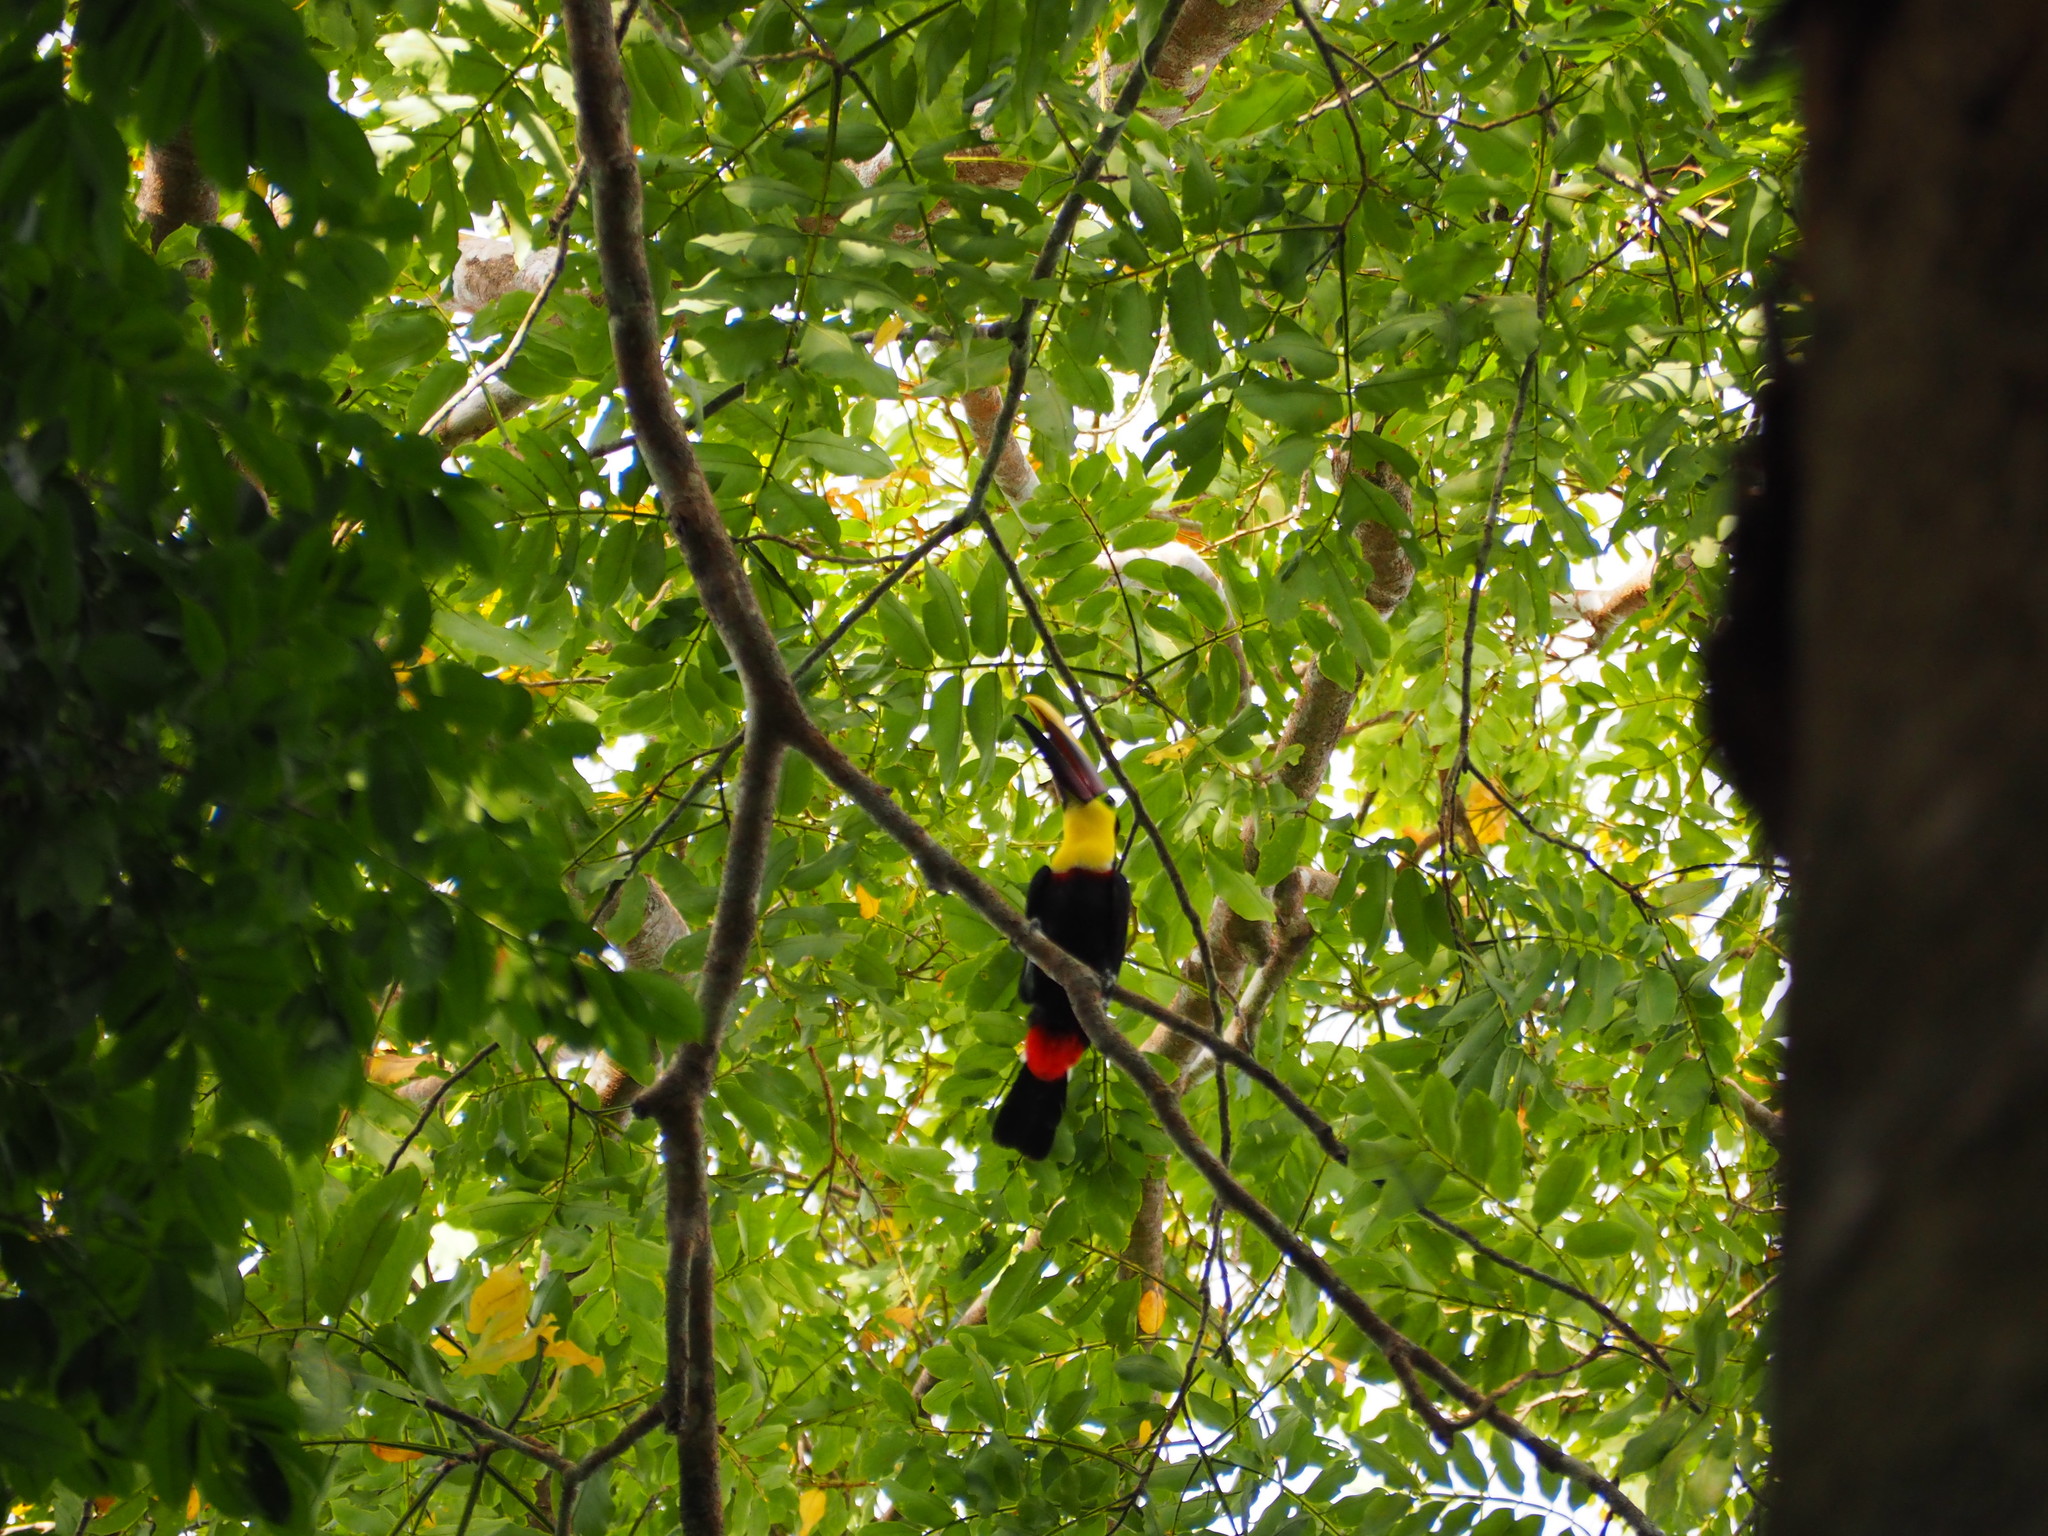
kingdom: Animalia
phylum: Chordata
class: Aves
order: Piciformes
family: Ramphastidae
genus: Ramphastos
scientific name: Ramphastos ambiguus
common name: Yellow-throated toucan
